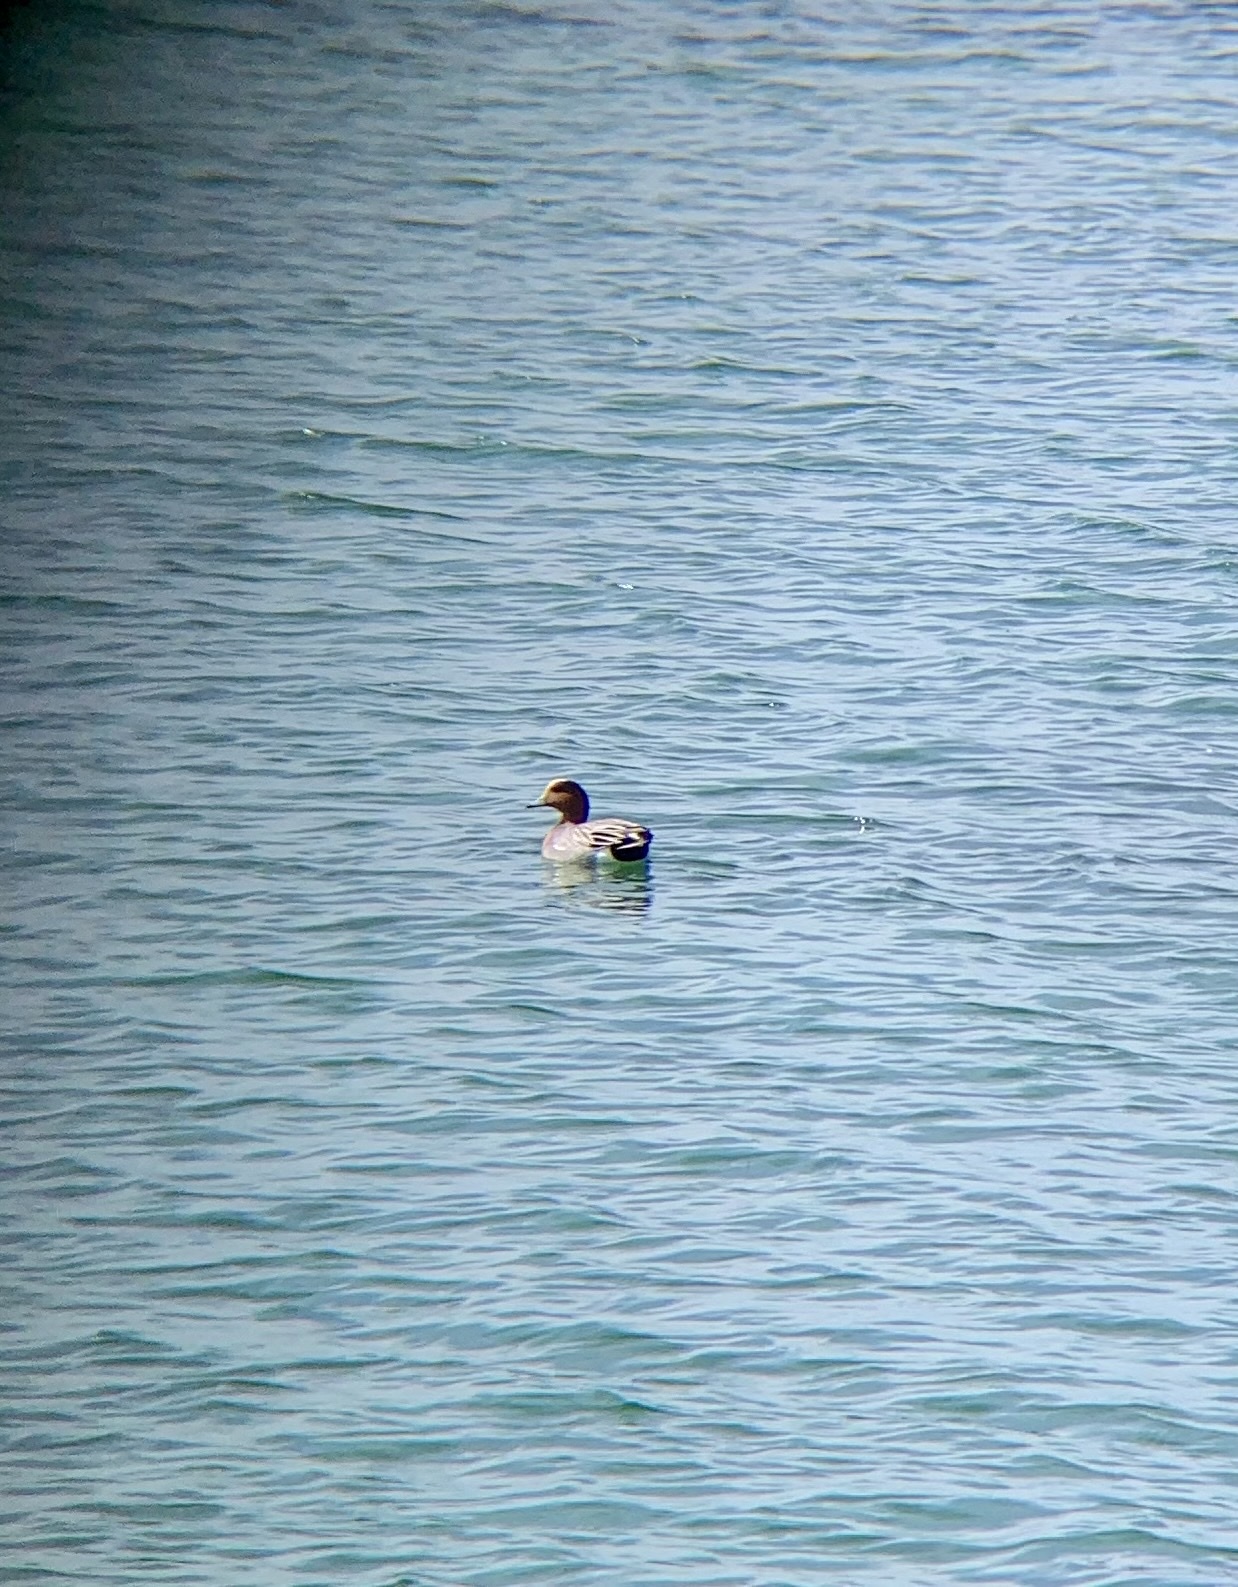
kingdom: Animalia
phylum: Chordata
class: Aves
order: Anseriformes
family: Anatidae
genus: Mareca
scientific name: Mareca penelope
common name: Eurasian wigeon
